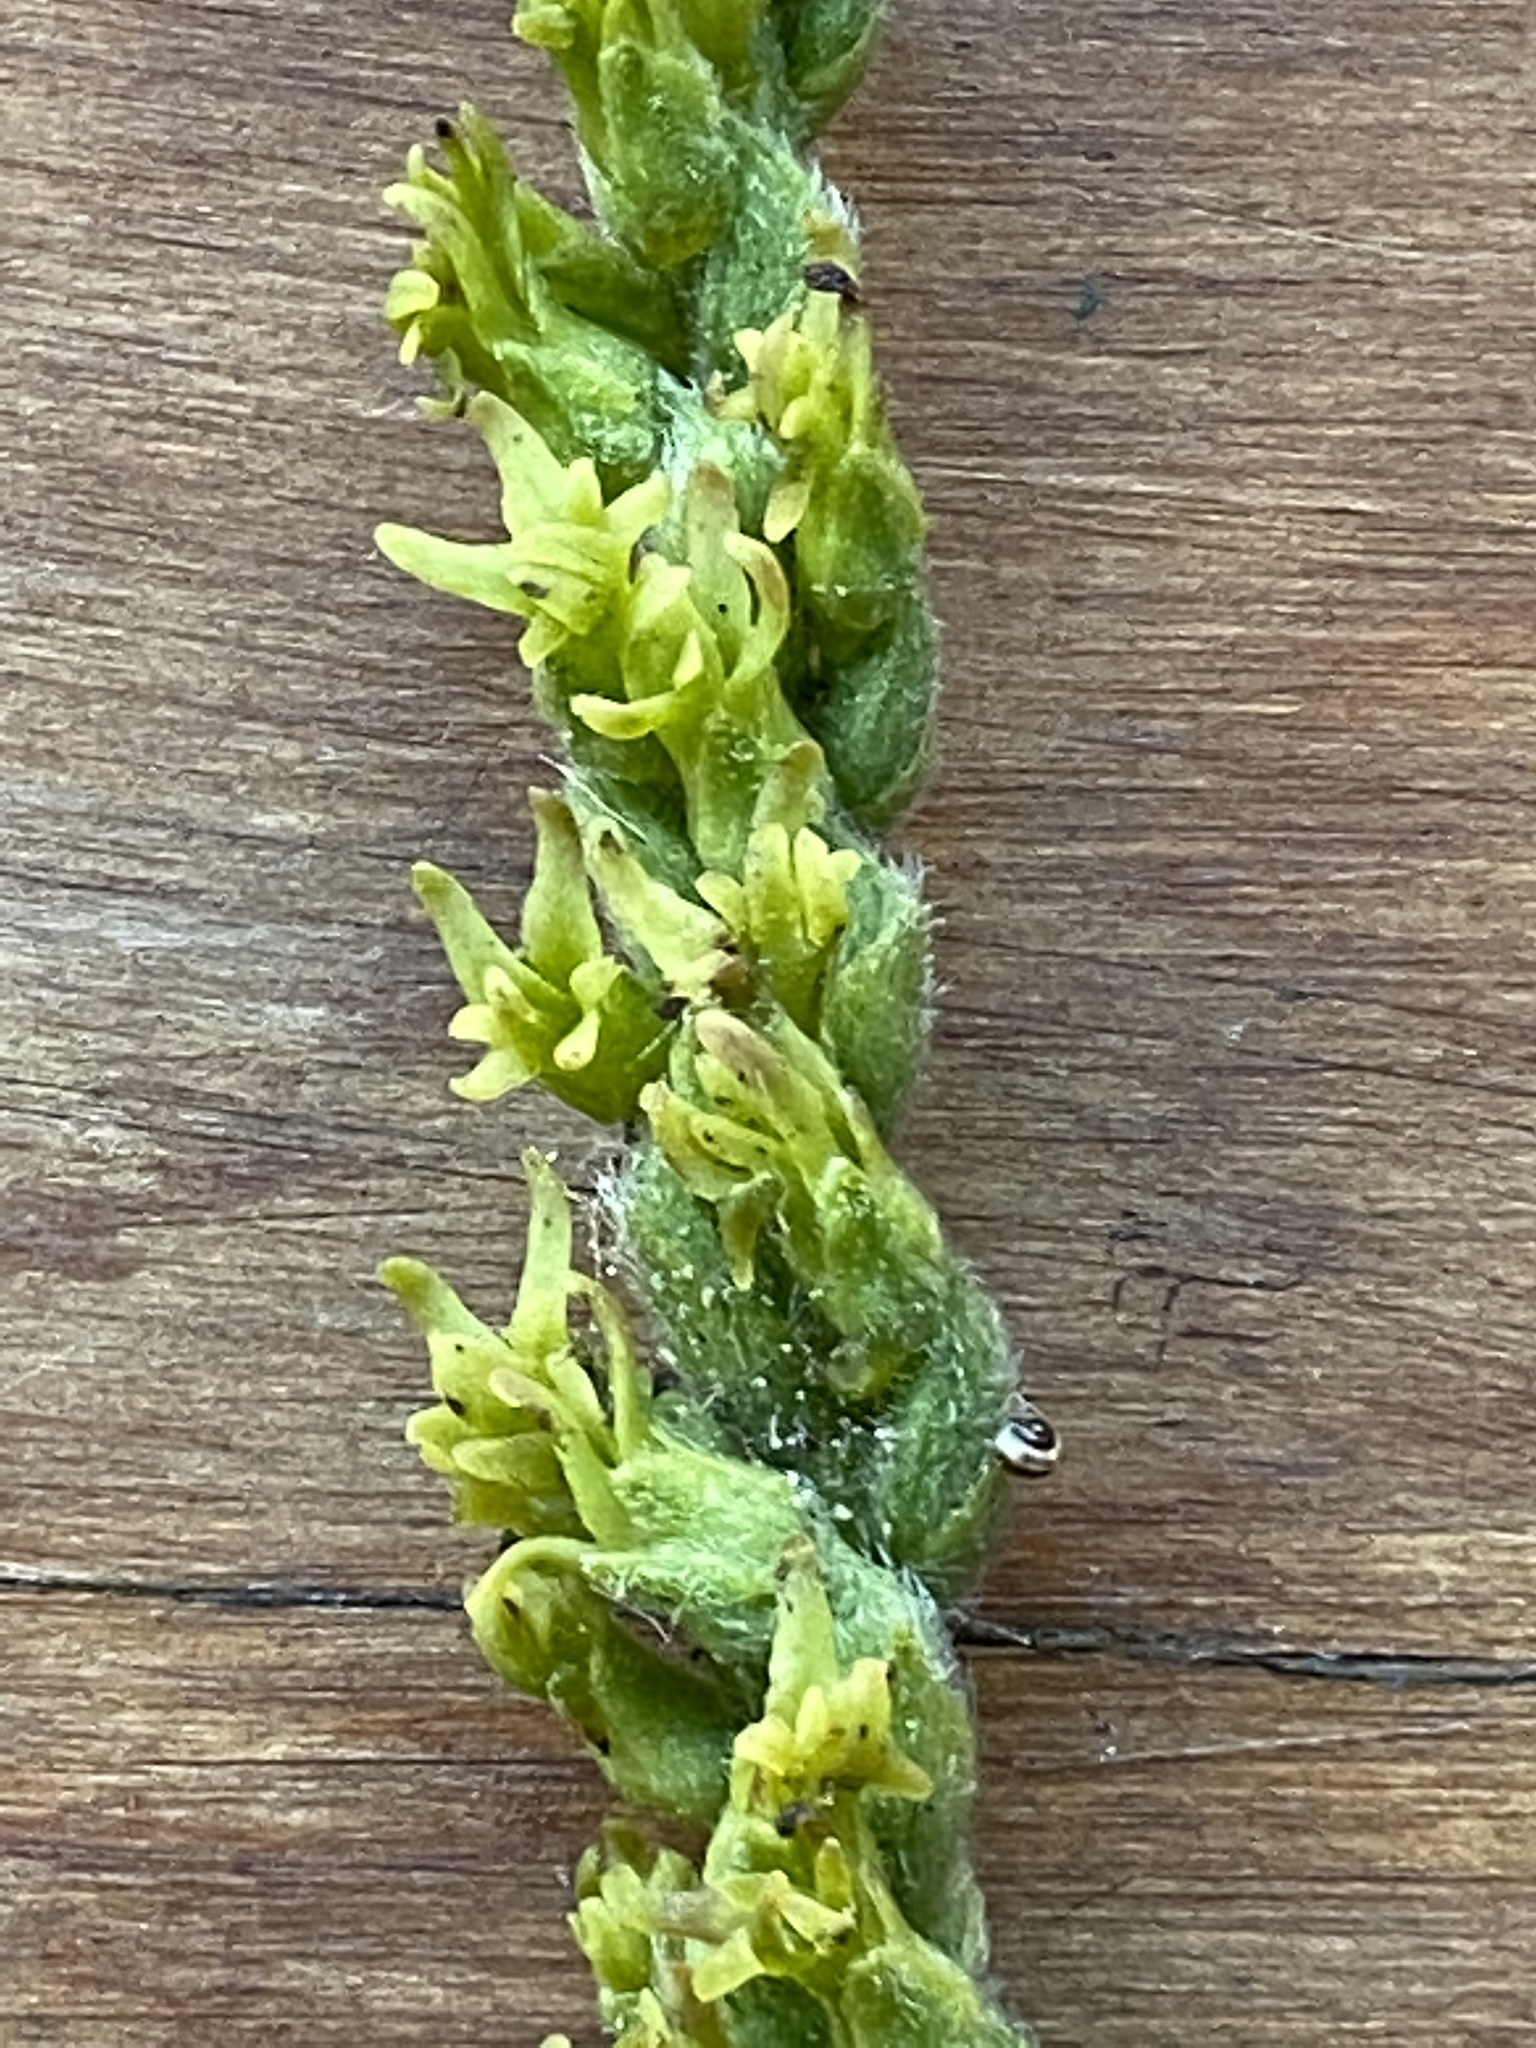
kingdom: Plantae
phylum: Tracheophyta
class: Liliopsida
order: Asparagales
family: Orchidaceae
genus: Holothrix
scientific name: Holothrix cernua
